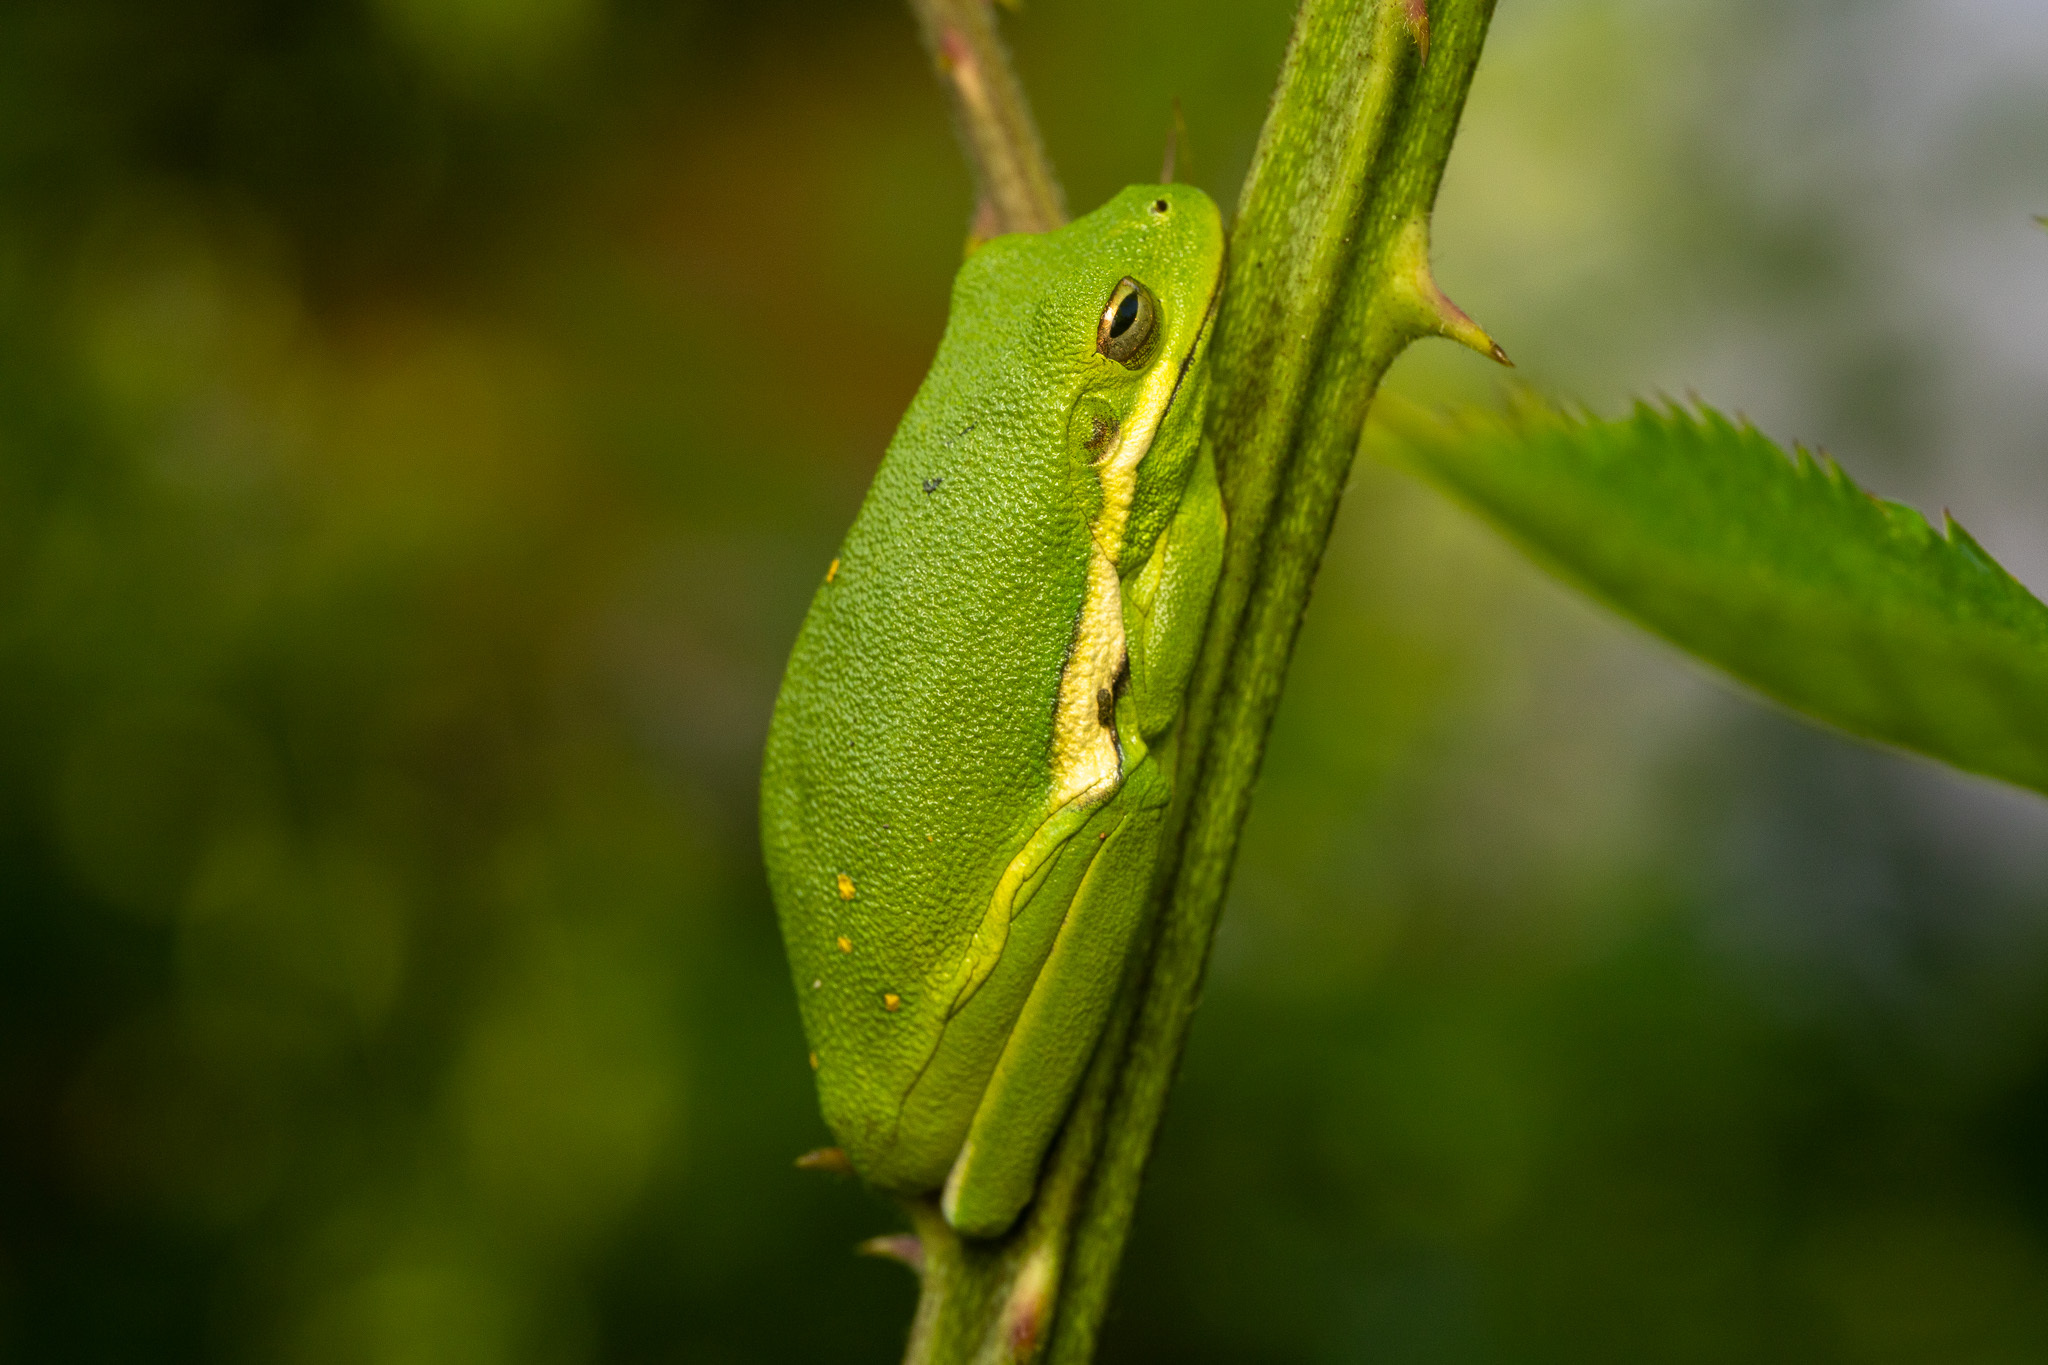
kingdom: Animalia
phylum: Chordata
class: Amphibia
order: Anura
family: Hylidae
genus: Dryophytes
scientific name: Dryophytes cinereus
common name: Green treefrog
